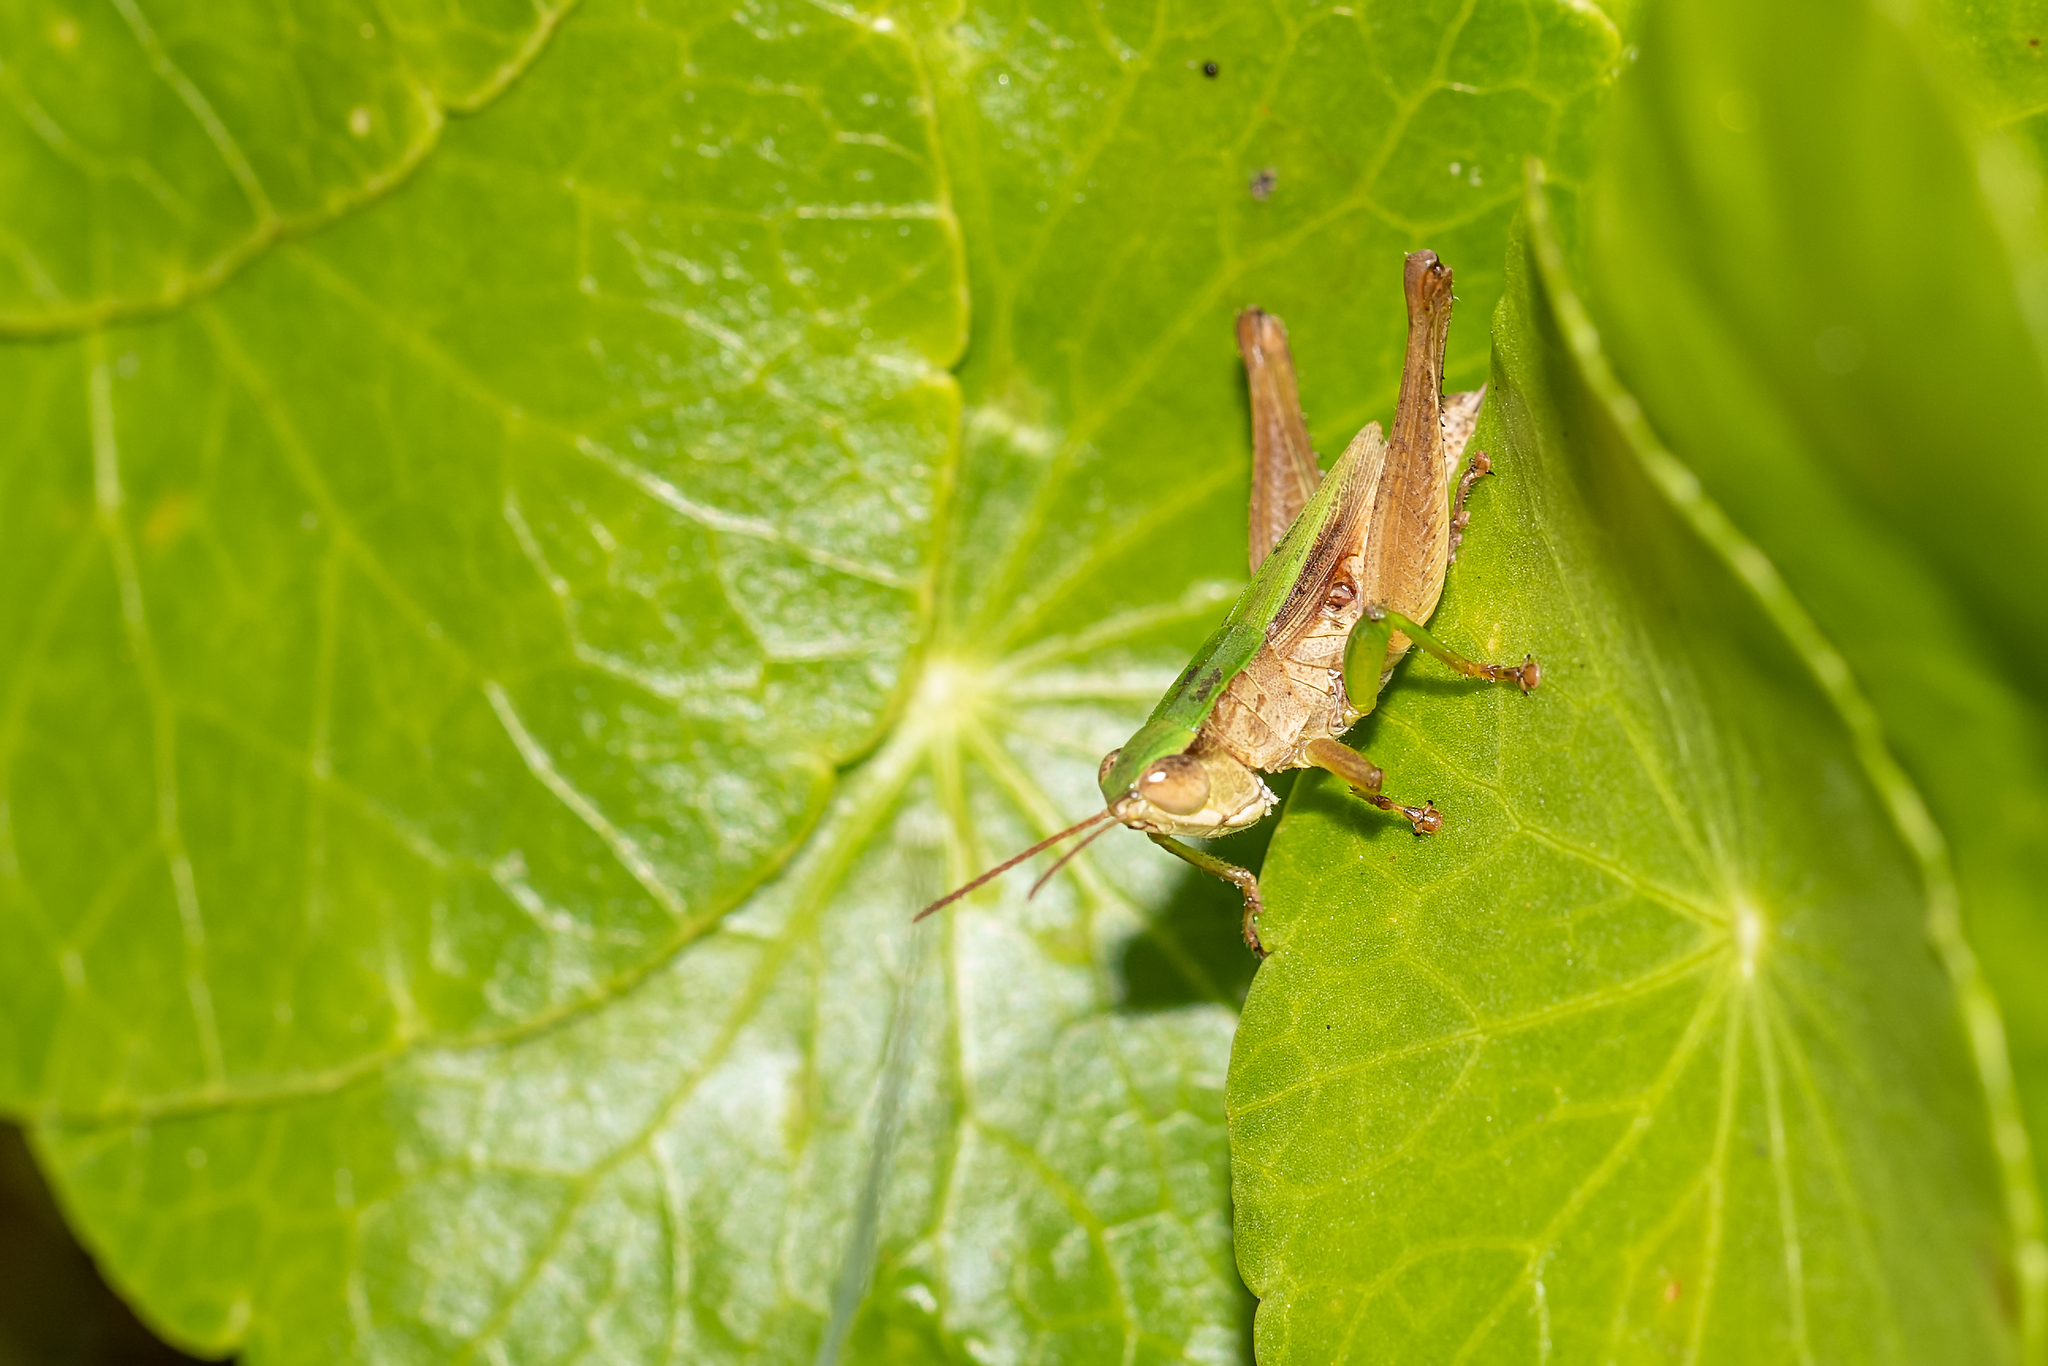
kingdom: Animalia
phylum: Arthropoda
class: Insecta
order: Orthoptera
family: Acrididae
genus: Dichromorpha
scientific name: Dichromorpha viridis
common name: Short-winged green grasshopper
